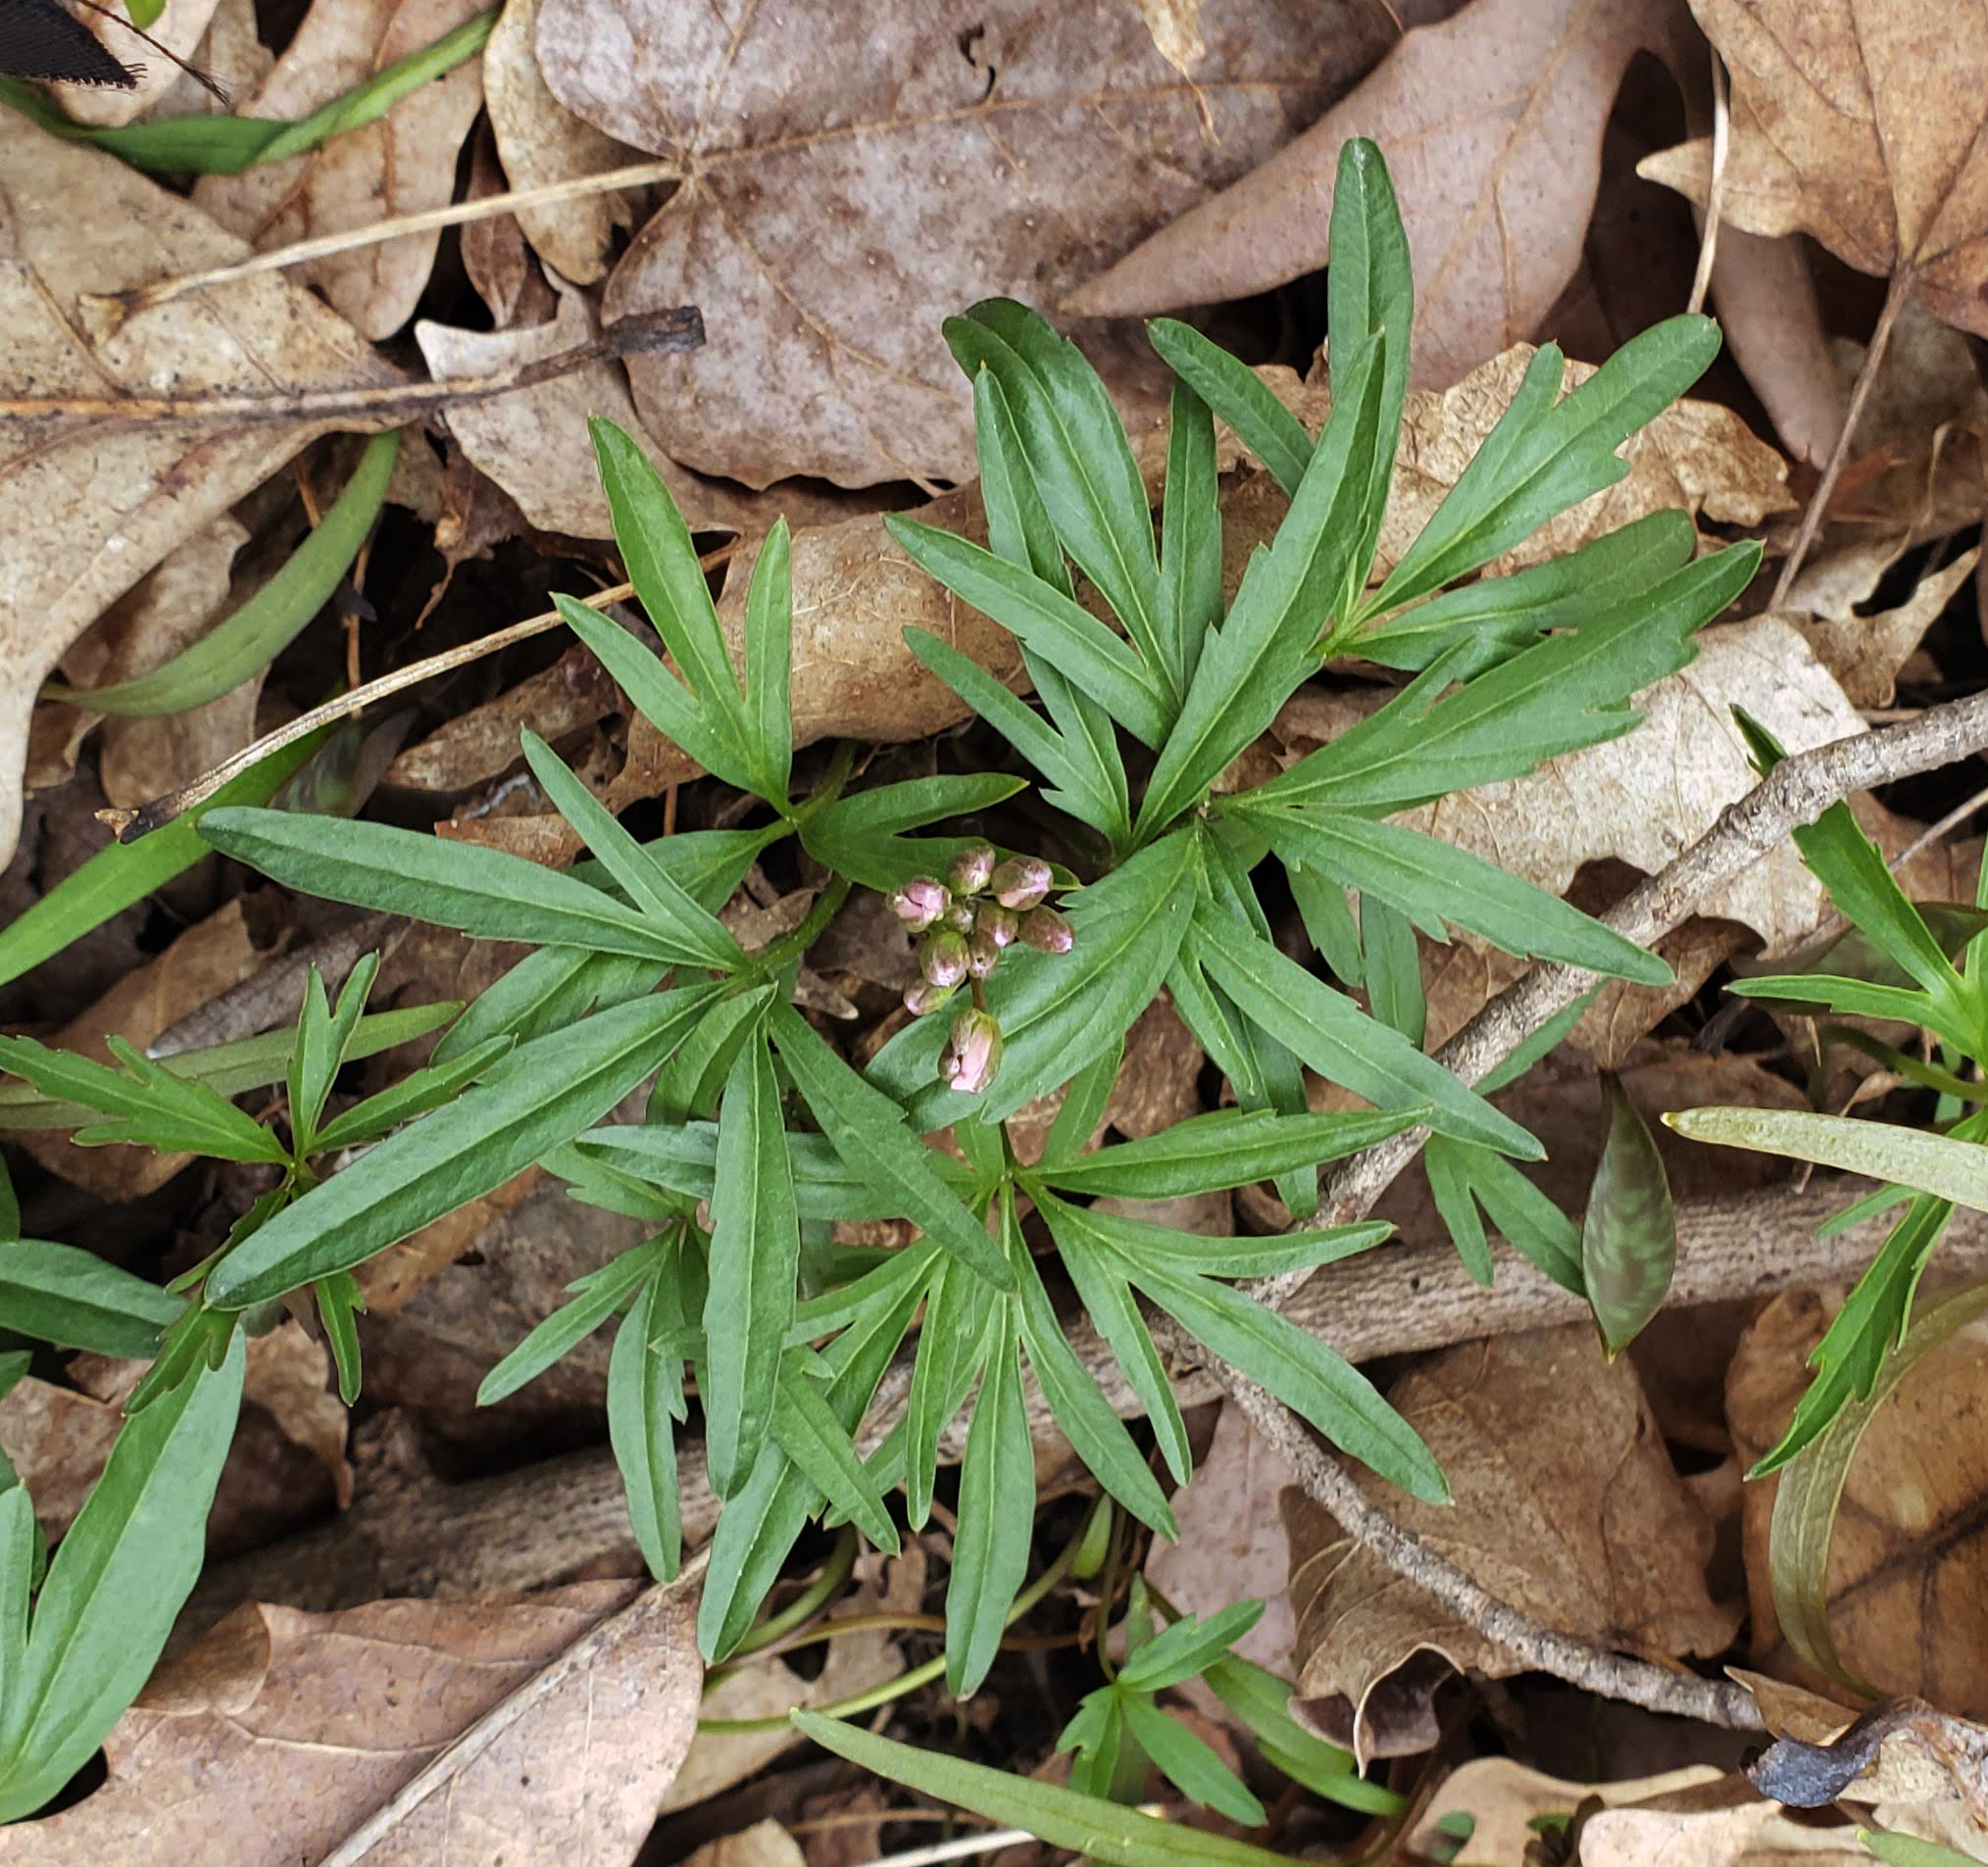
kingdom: Plantae
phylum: Tracheophyta
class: Magnoliopsida
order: Brassicales
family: Brassicaceae
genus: Cardamine
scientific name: Cardamine concatenata
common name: Cut-leaf toothcup
